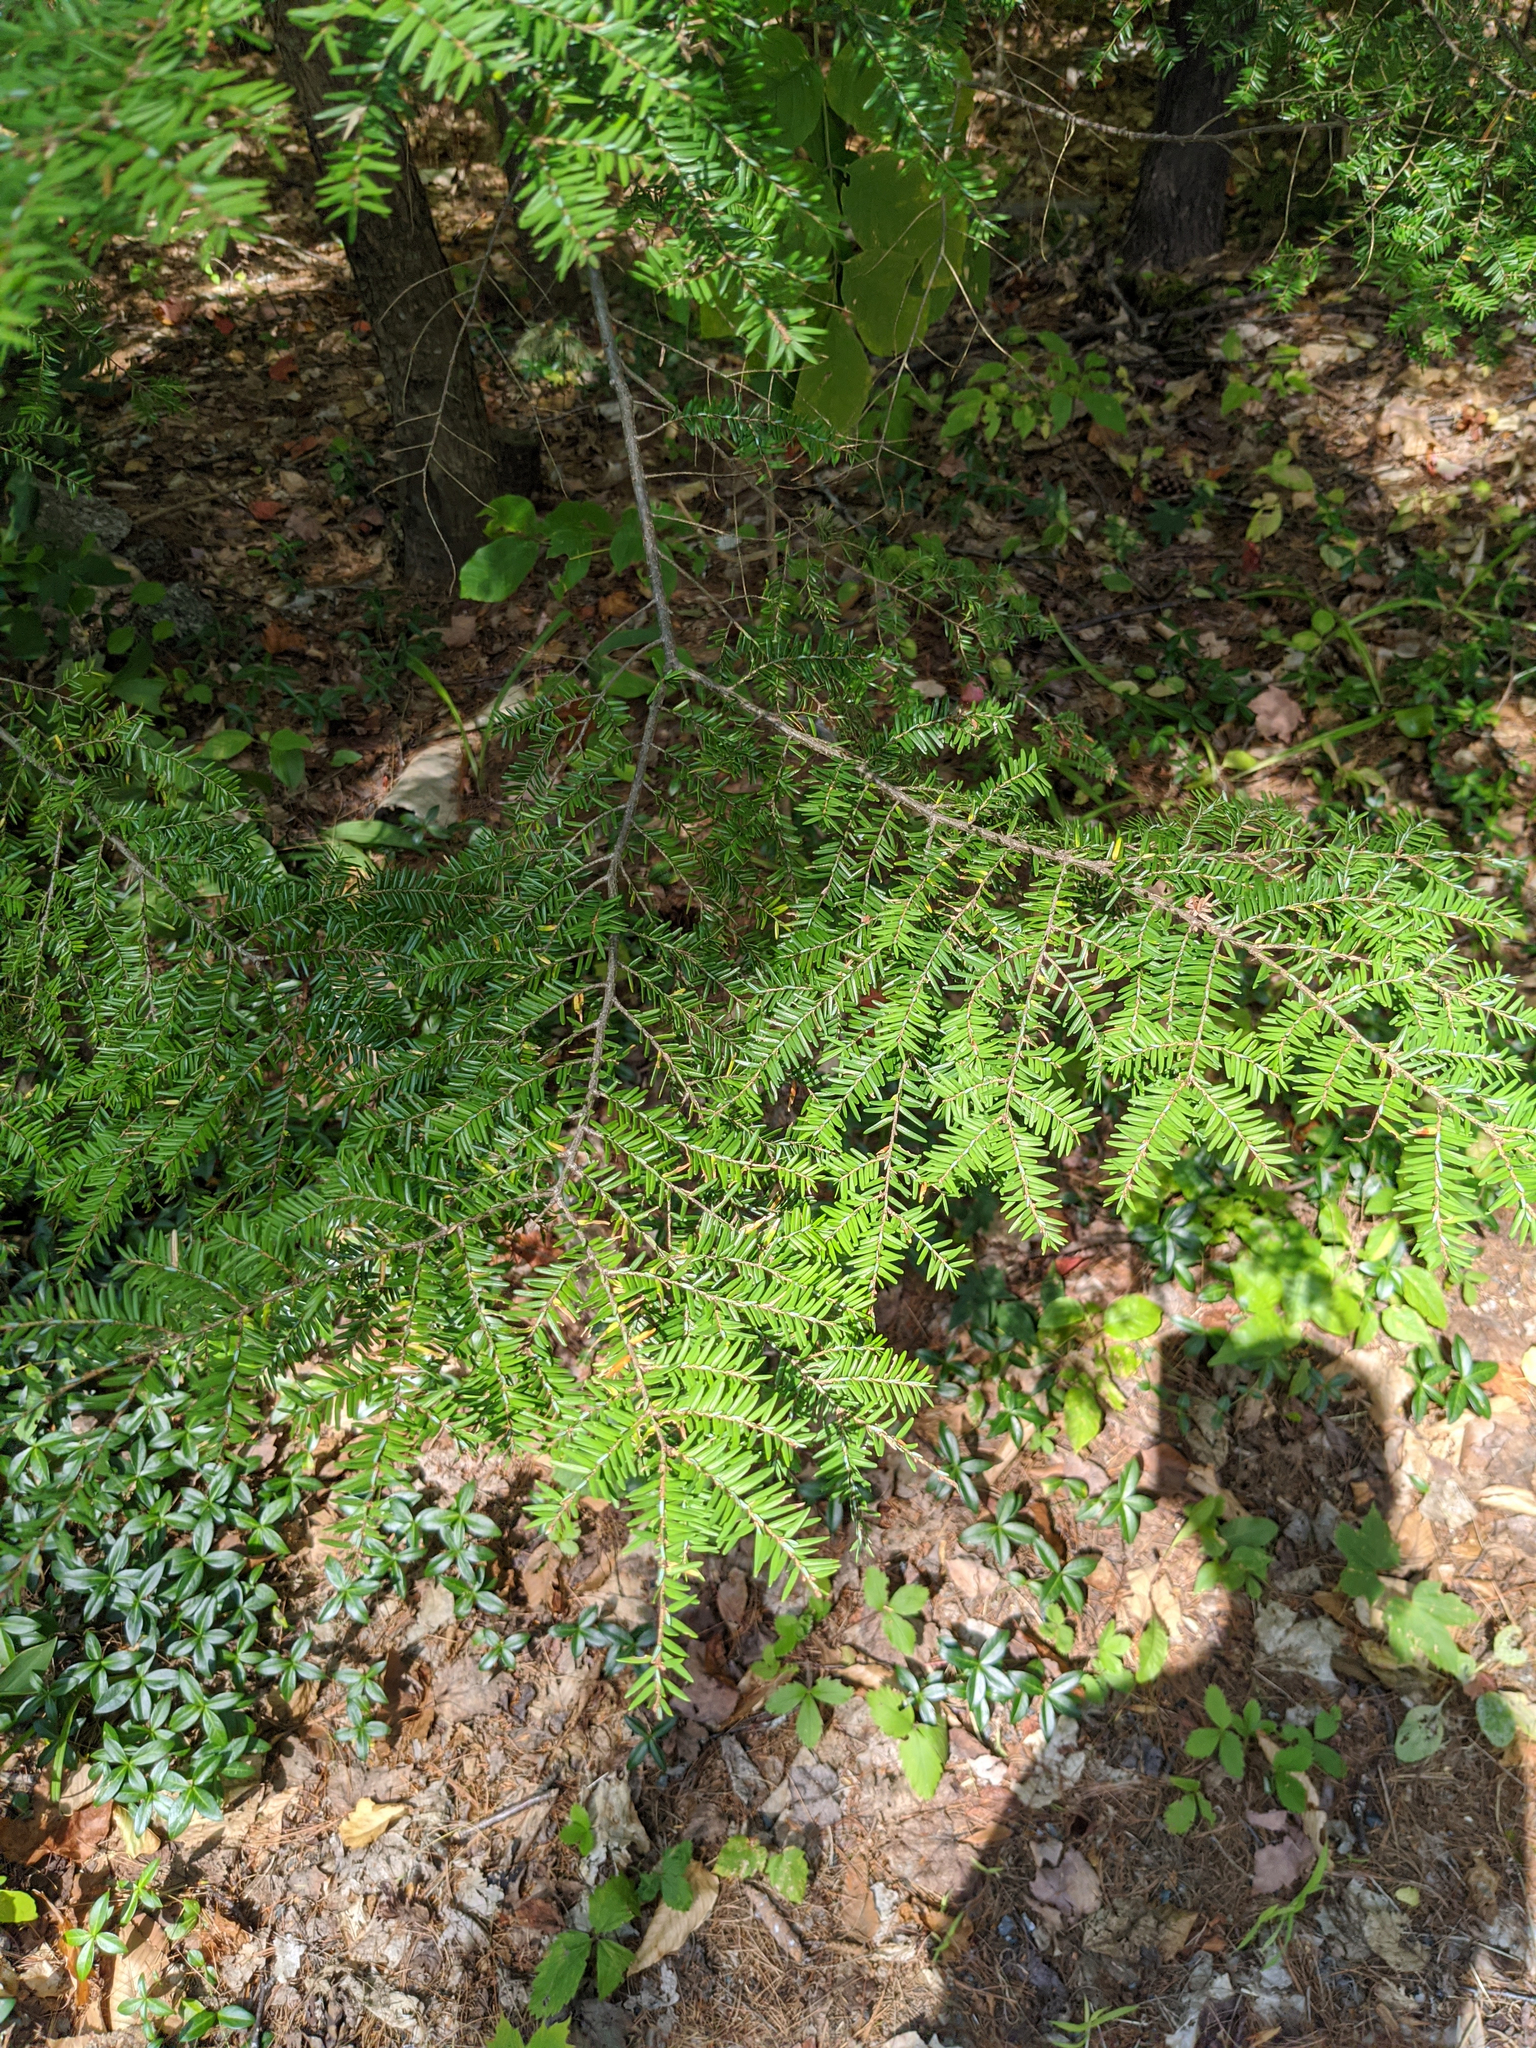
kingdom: Plantae
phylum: Tracheophyta
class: Pinopsida
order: Pinales
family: Pinaceae
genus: Tsuga
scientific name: Tsuga canadensis
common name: Eastern hemlock
